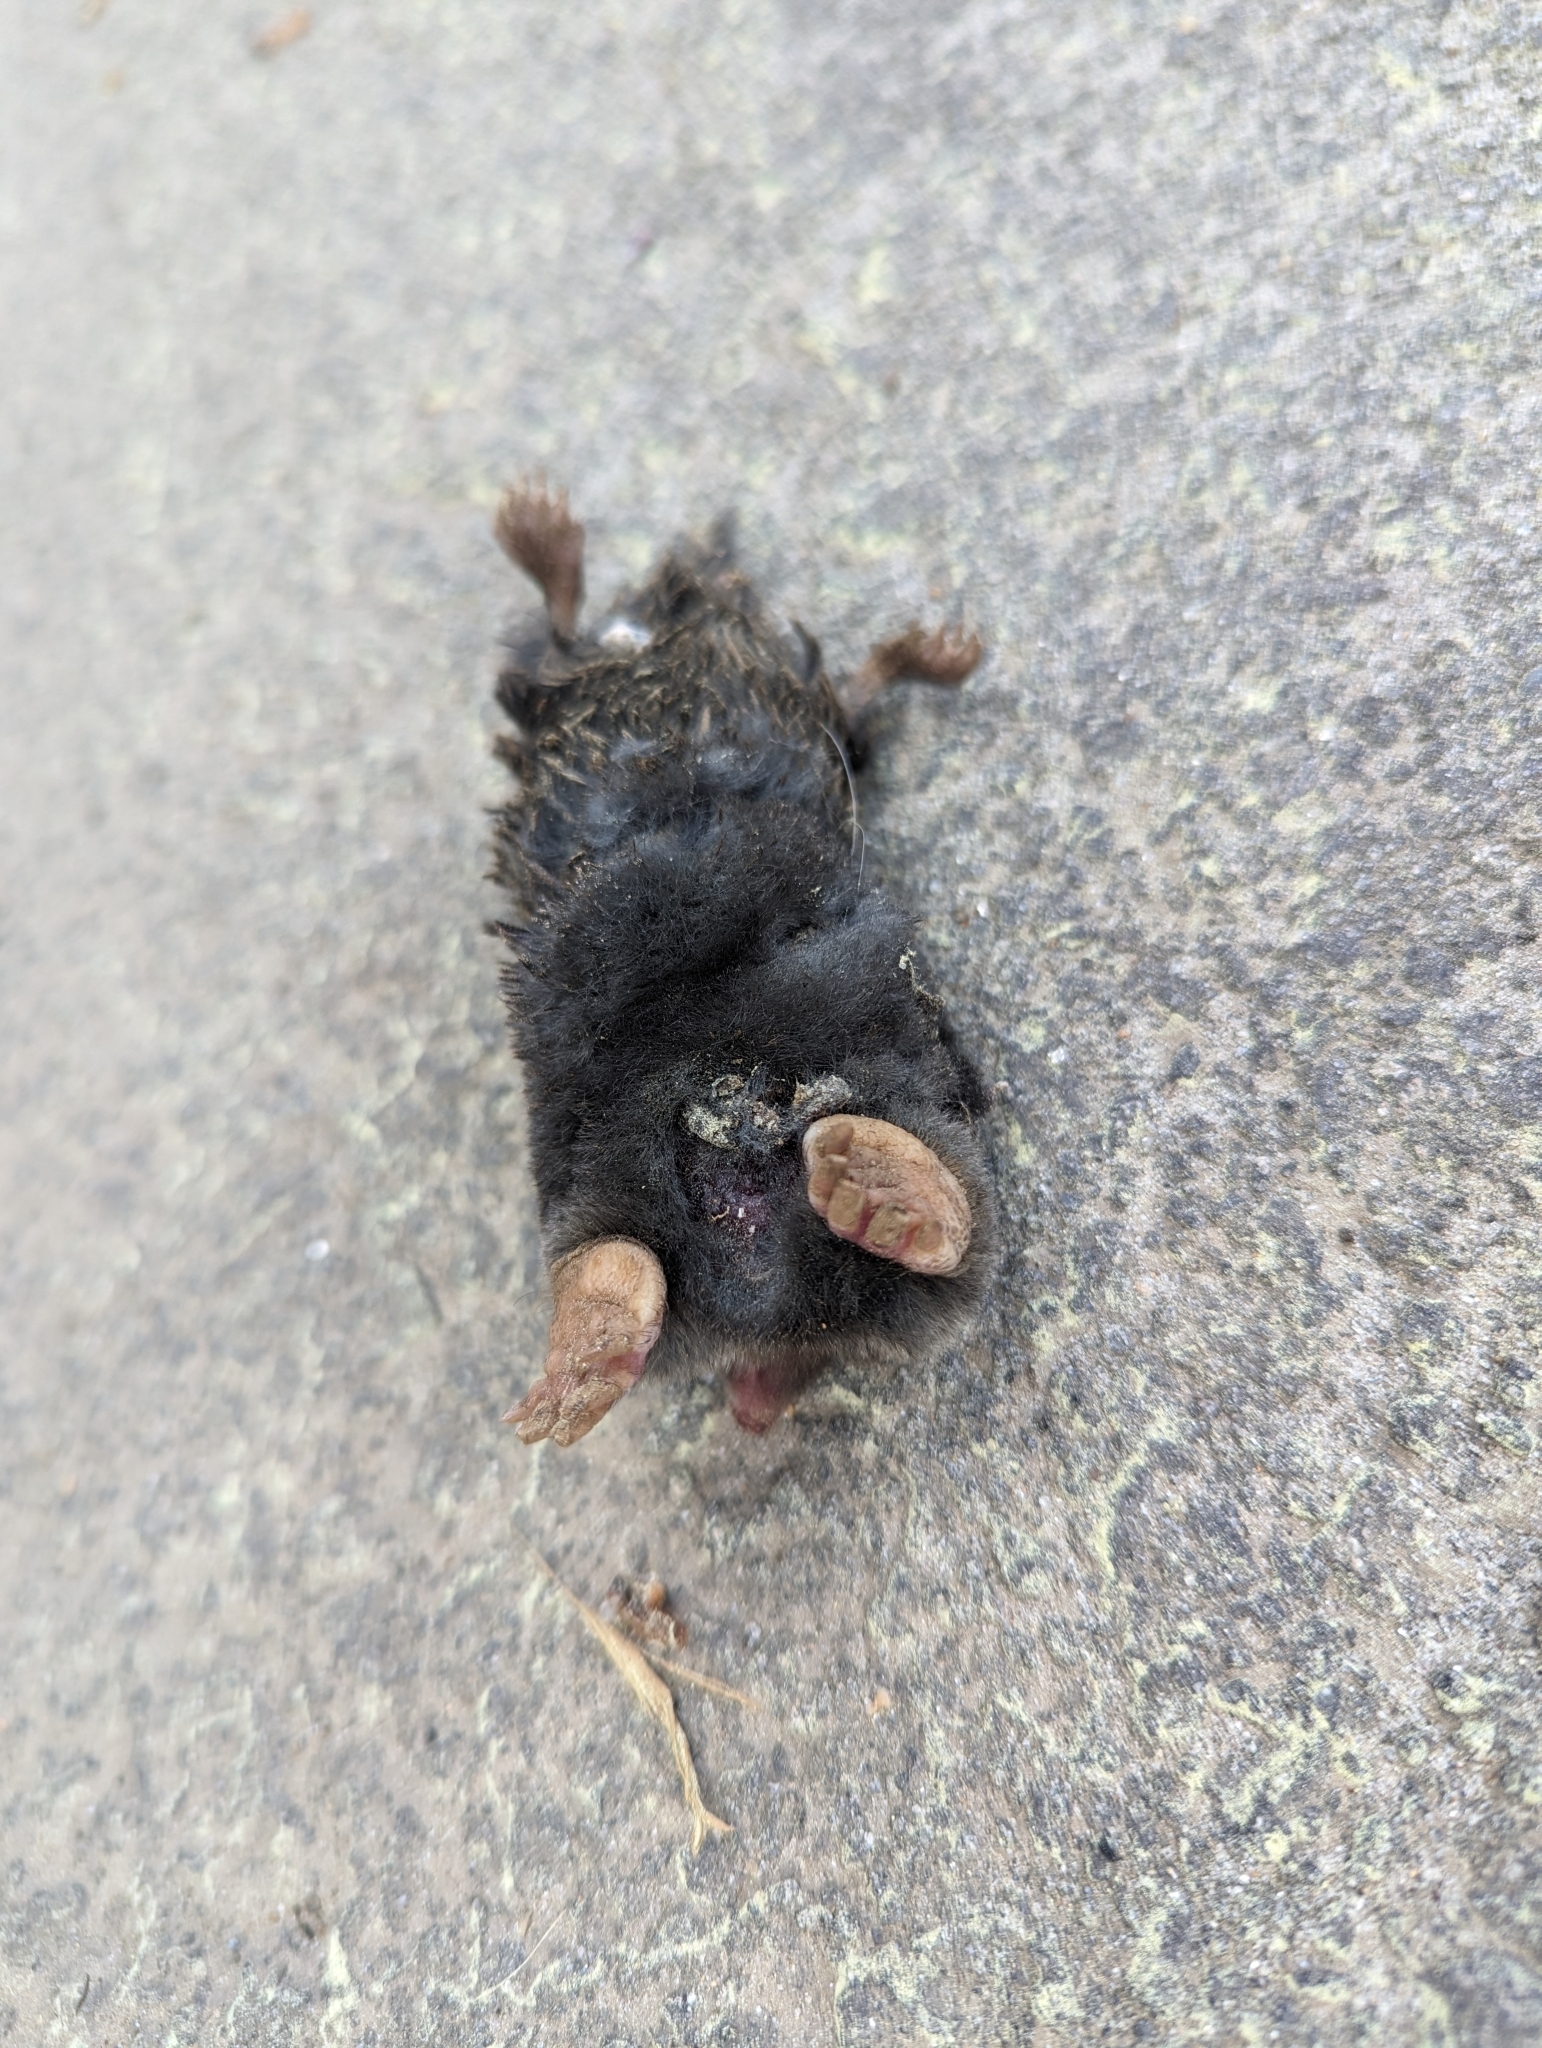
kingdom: Animalia
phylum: Chordata
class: Mammalia
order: Soricomorpha
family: Talpidae
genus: Talpa
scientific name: Talpa occidentalis
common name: Iberian mole
